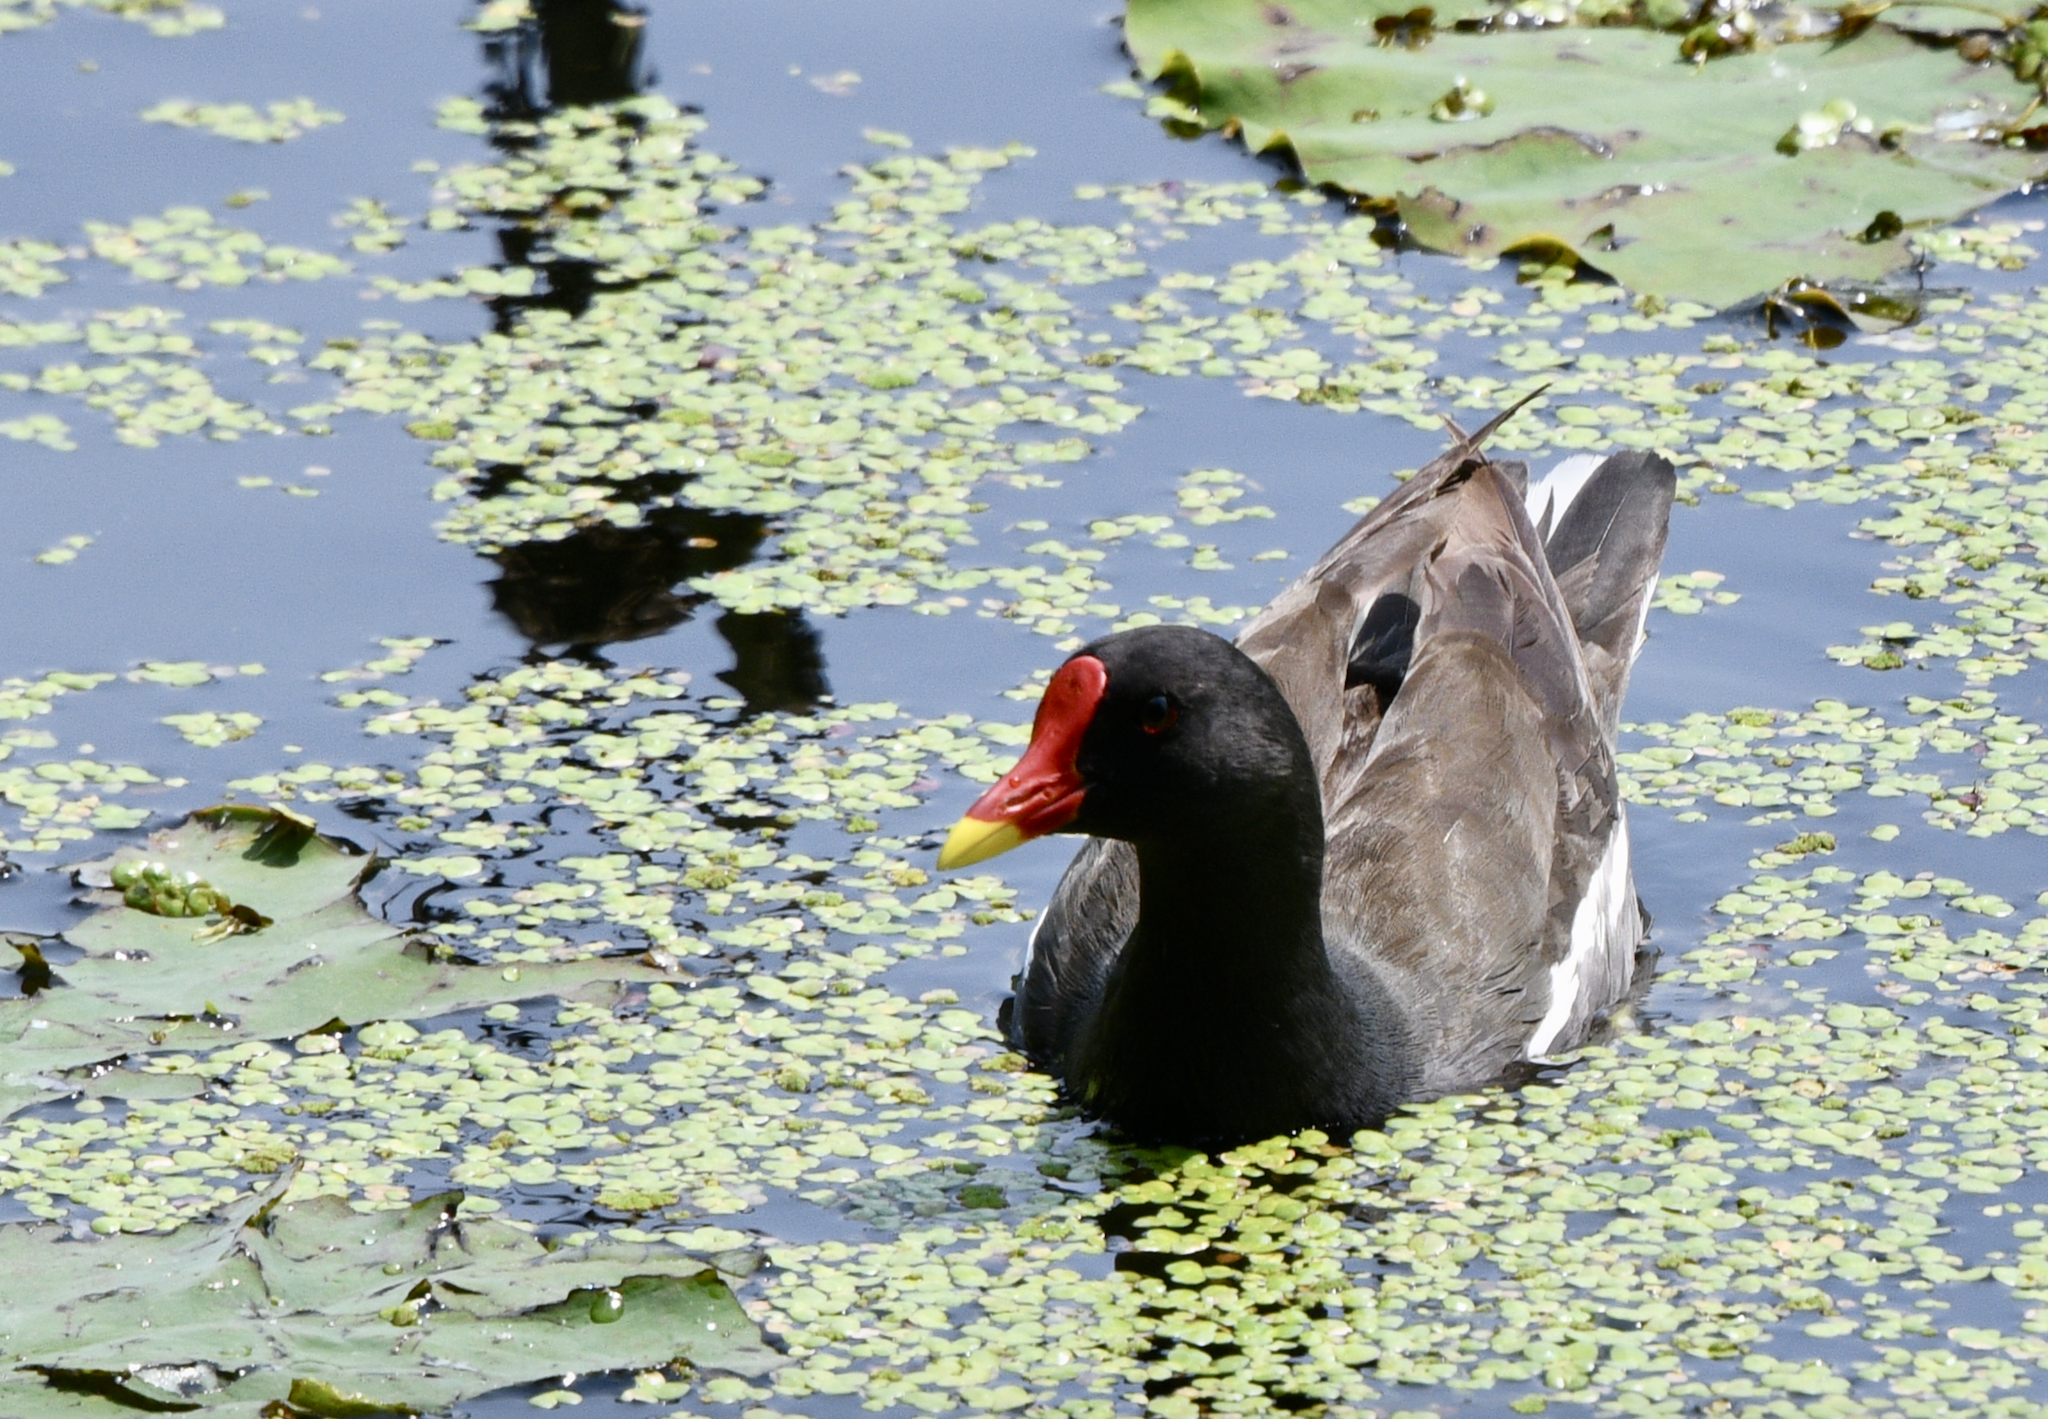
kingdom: Animalia
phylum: Chordata
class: Aves
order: Gruiformes
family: Rallidae
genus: Gallinula
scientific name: Gallinula chloropus
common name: Common moorhen
